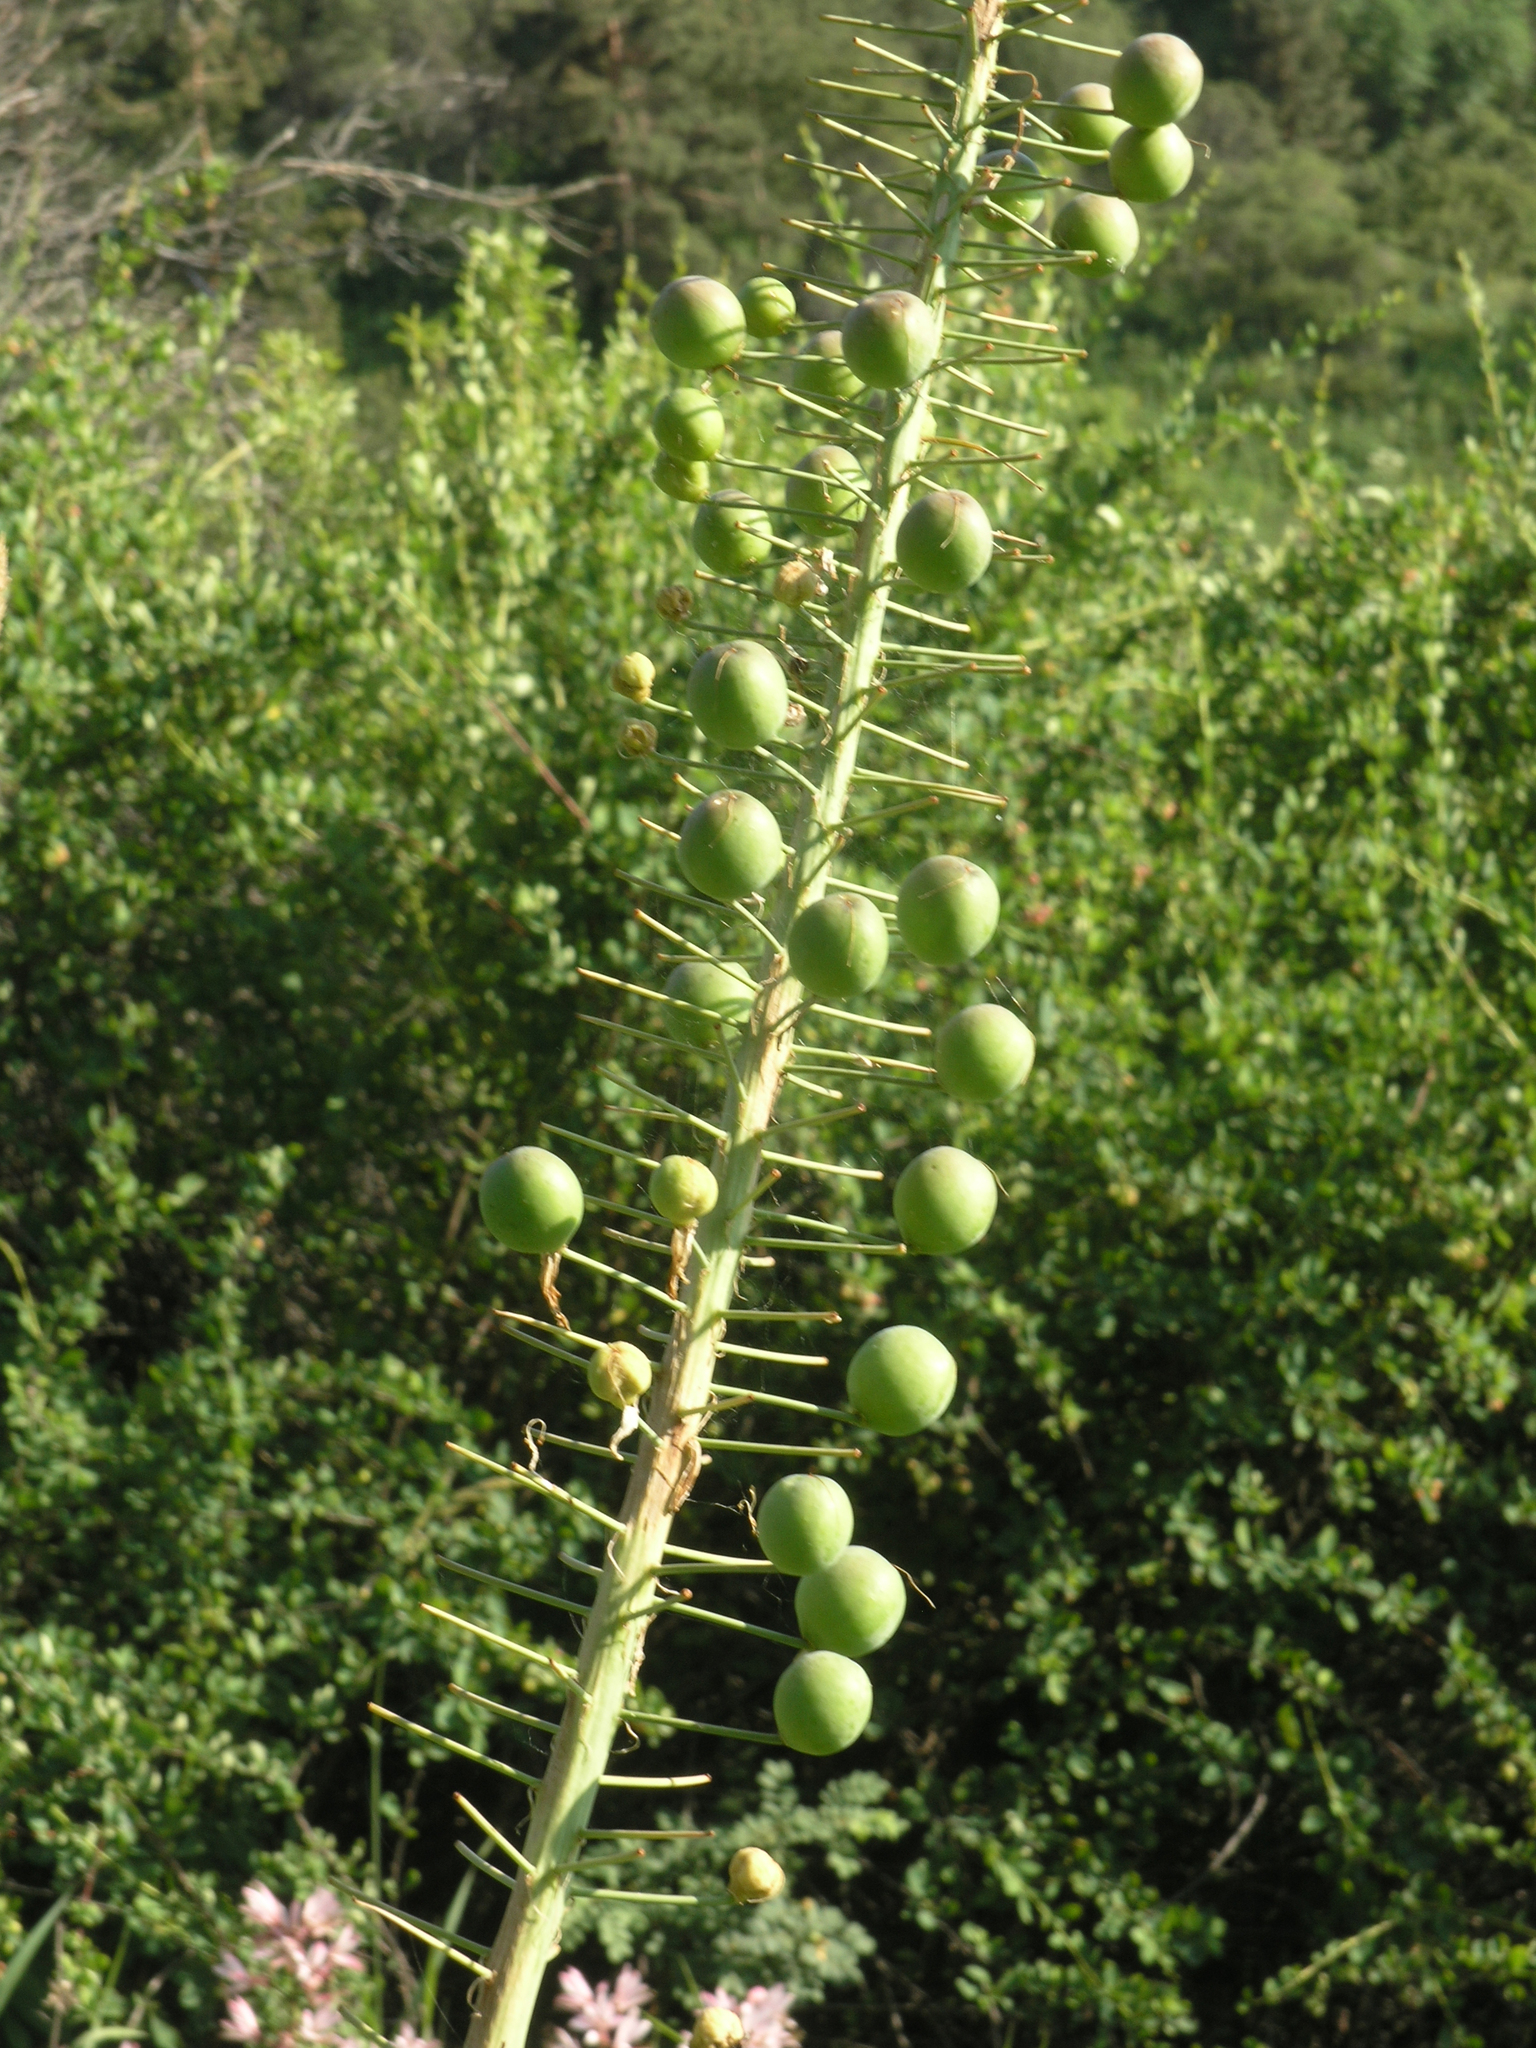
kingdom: Plantae
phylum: Tracheophyta
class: Liliopsida
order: Asparagales
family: Asphodelaceae
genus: Eremurus
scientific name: Eremurus robustus
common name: Foxtail lily
